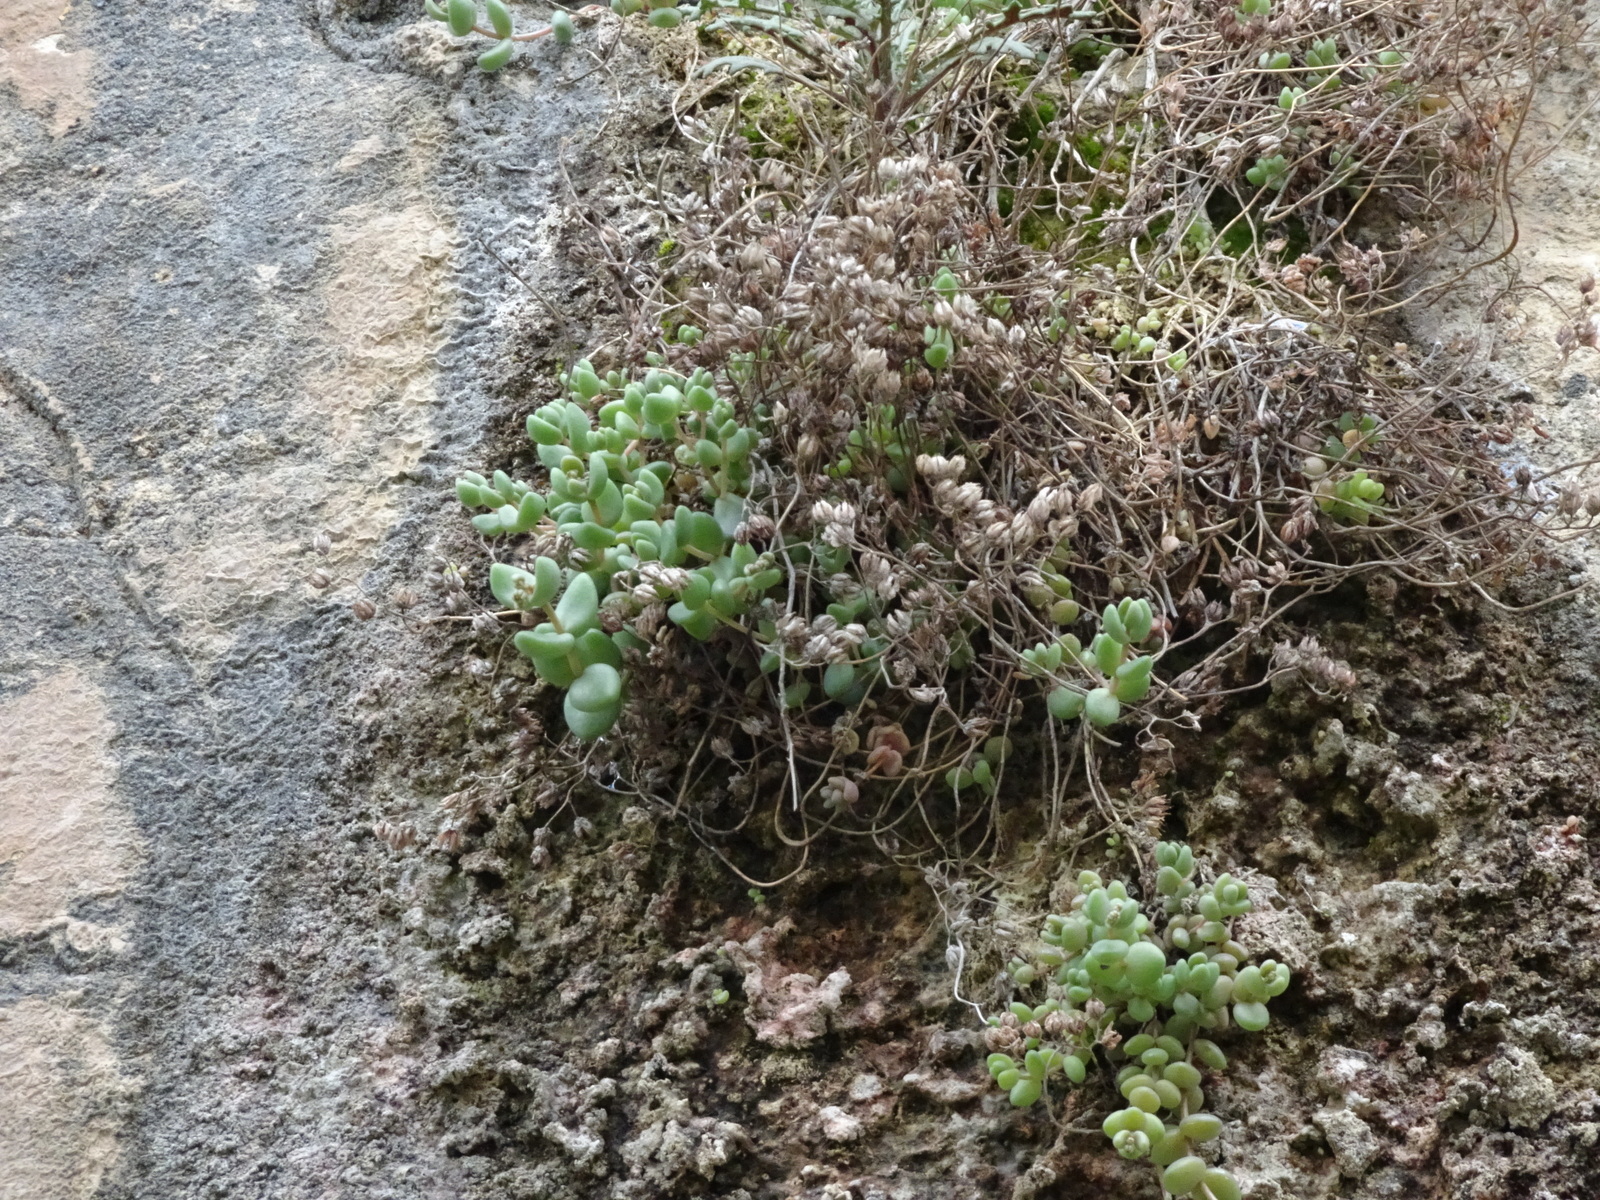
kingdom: Plantae
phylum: Tracheophyta
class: Magnoliopsida
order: Saxifragales
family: Crassulaceae
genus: Sedum
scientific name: Sedum dasyphyllum
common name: Thick-leaf stonecrop
